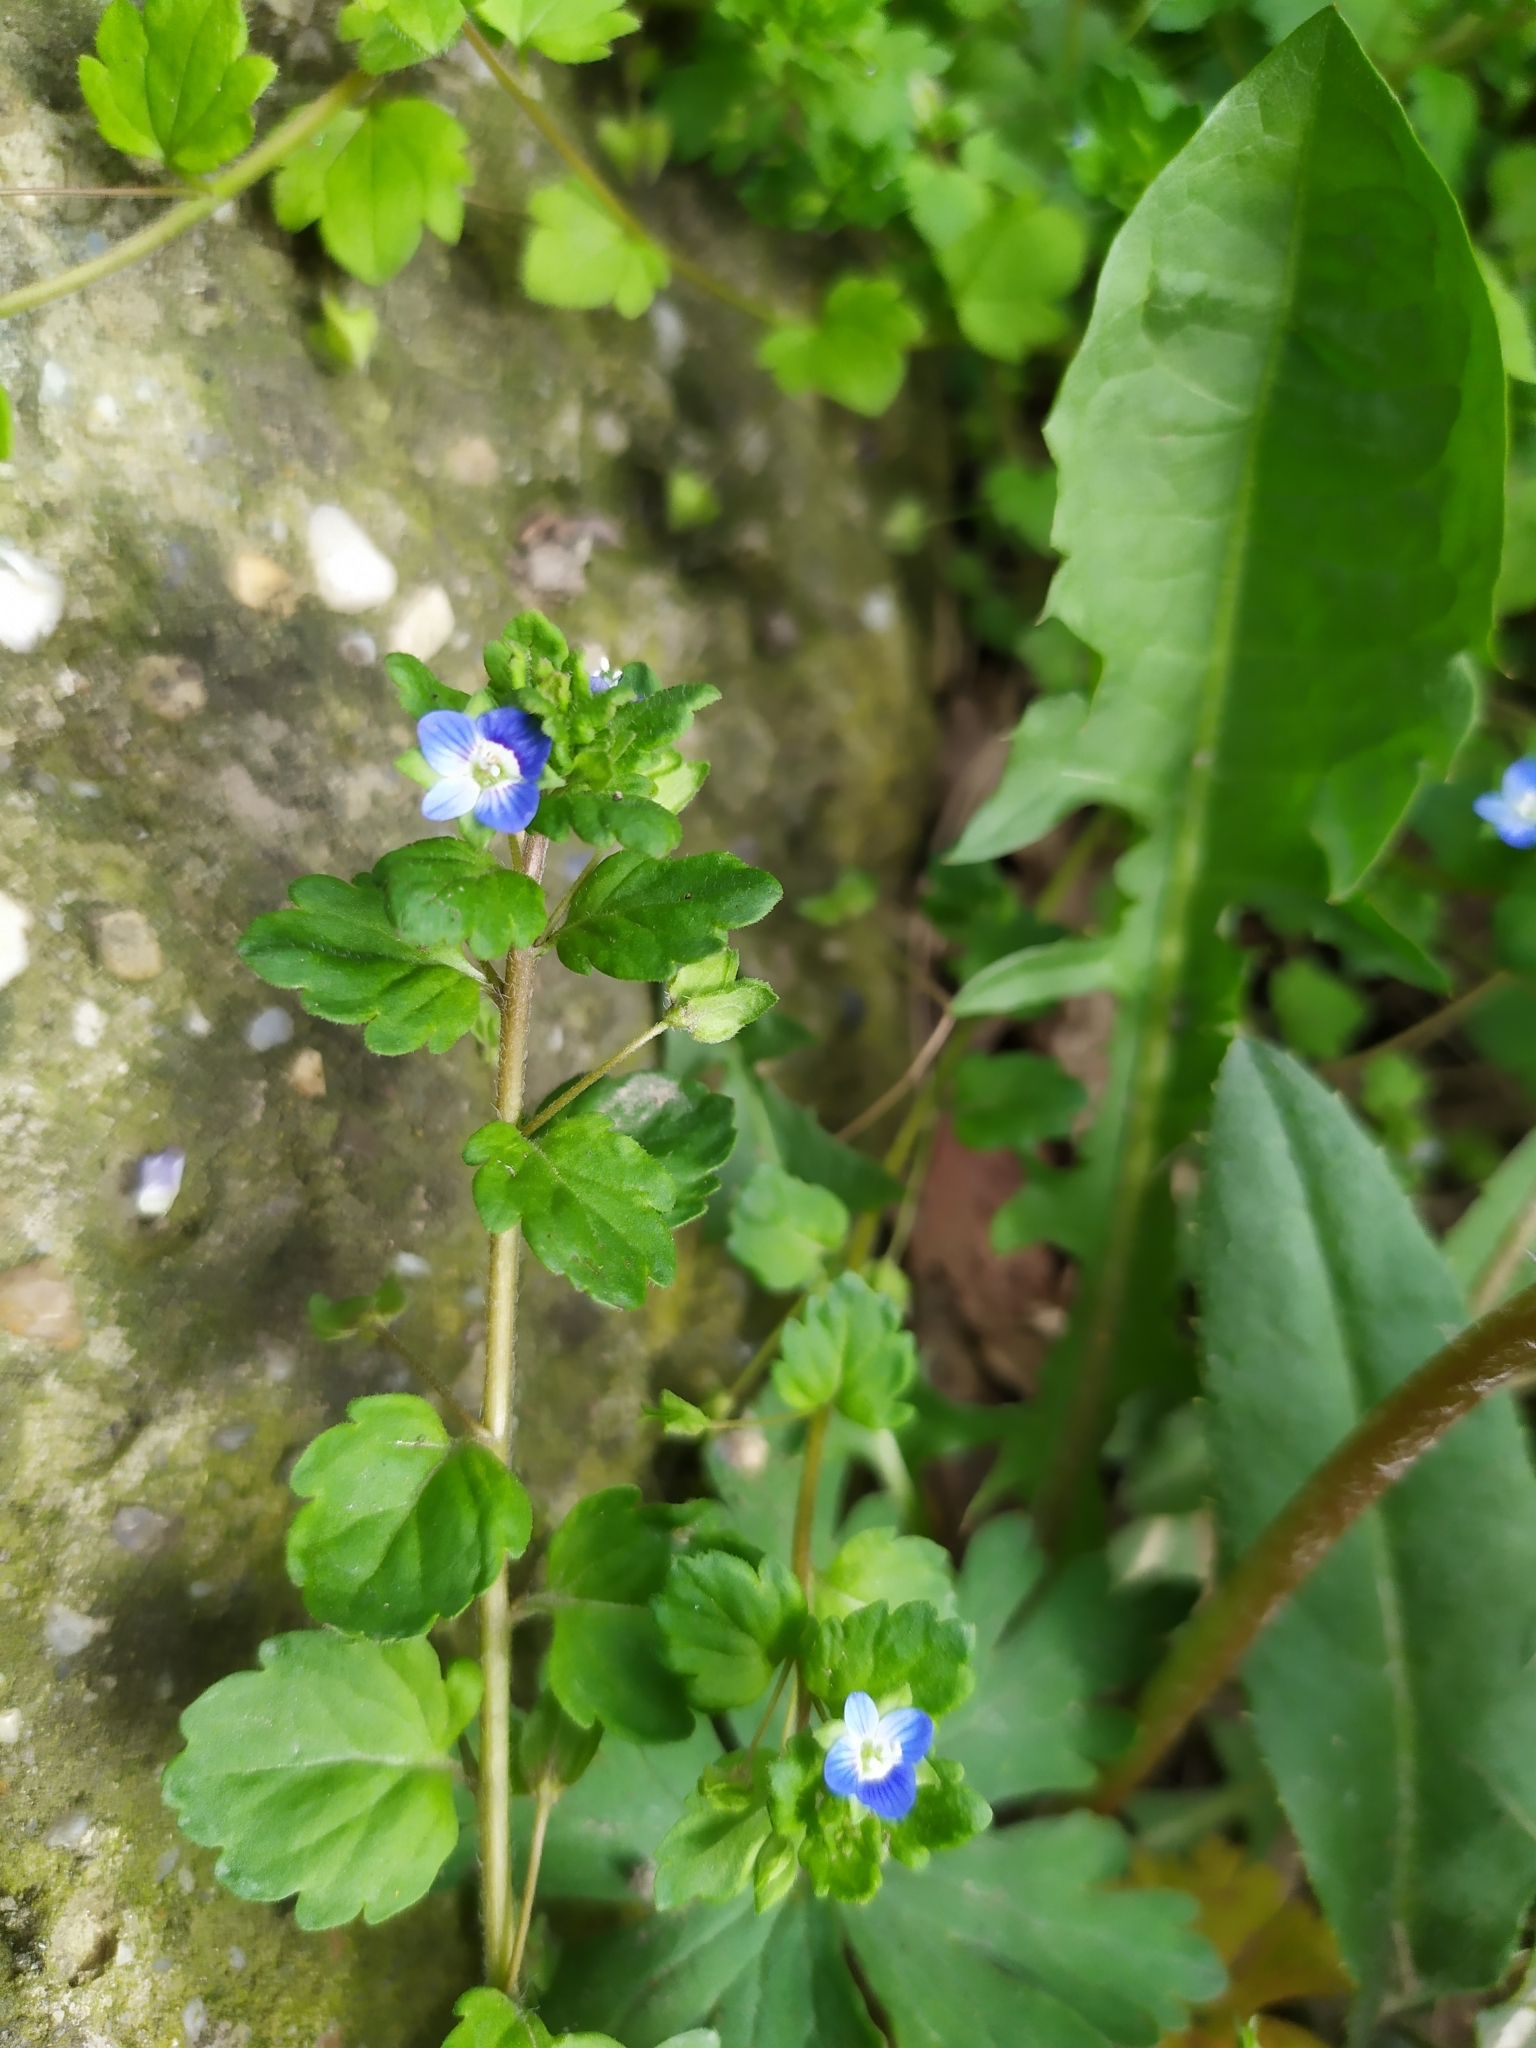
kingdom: Plantae
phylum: Tracheophyta
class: Magnoliopsida
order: Lamiales
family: Plantaginaceae
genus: Veronica
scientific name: Veronica polita
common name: Grey field-speedwell
